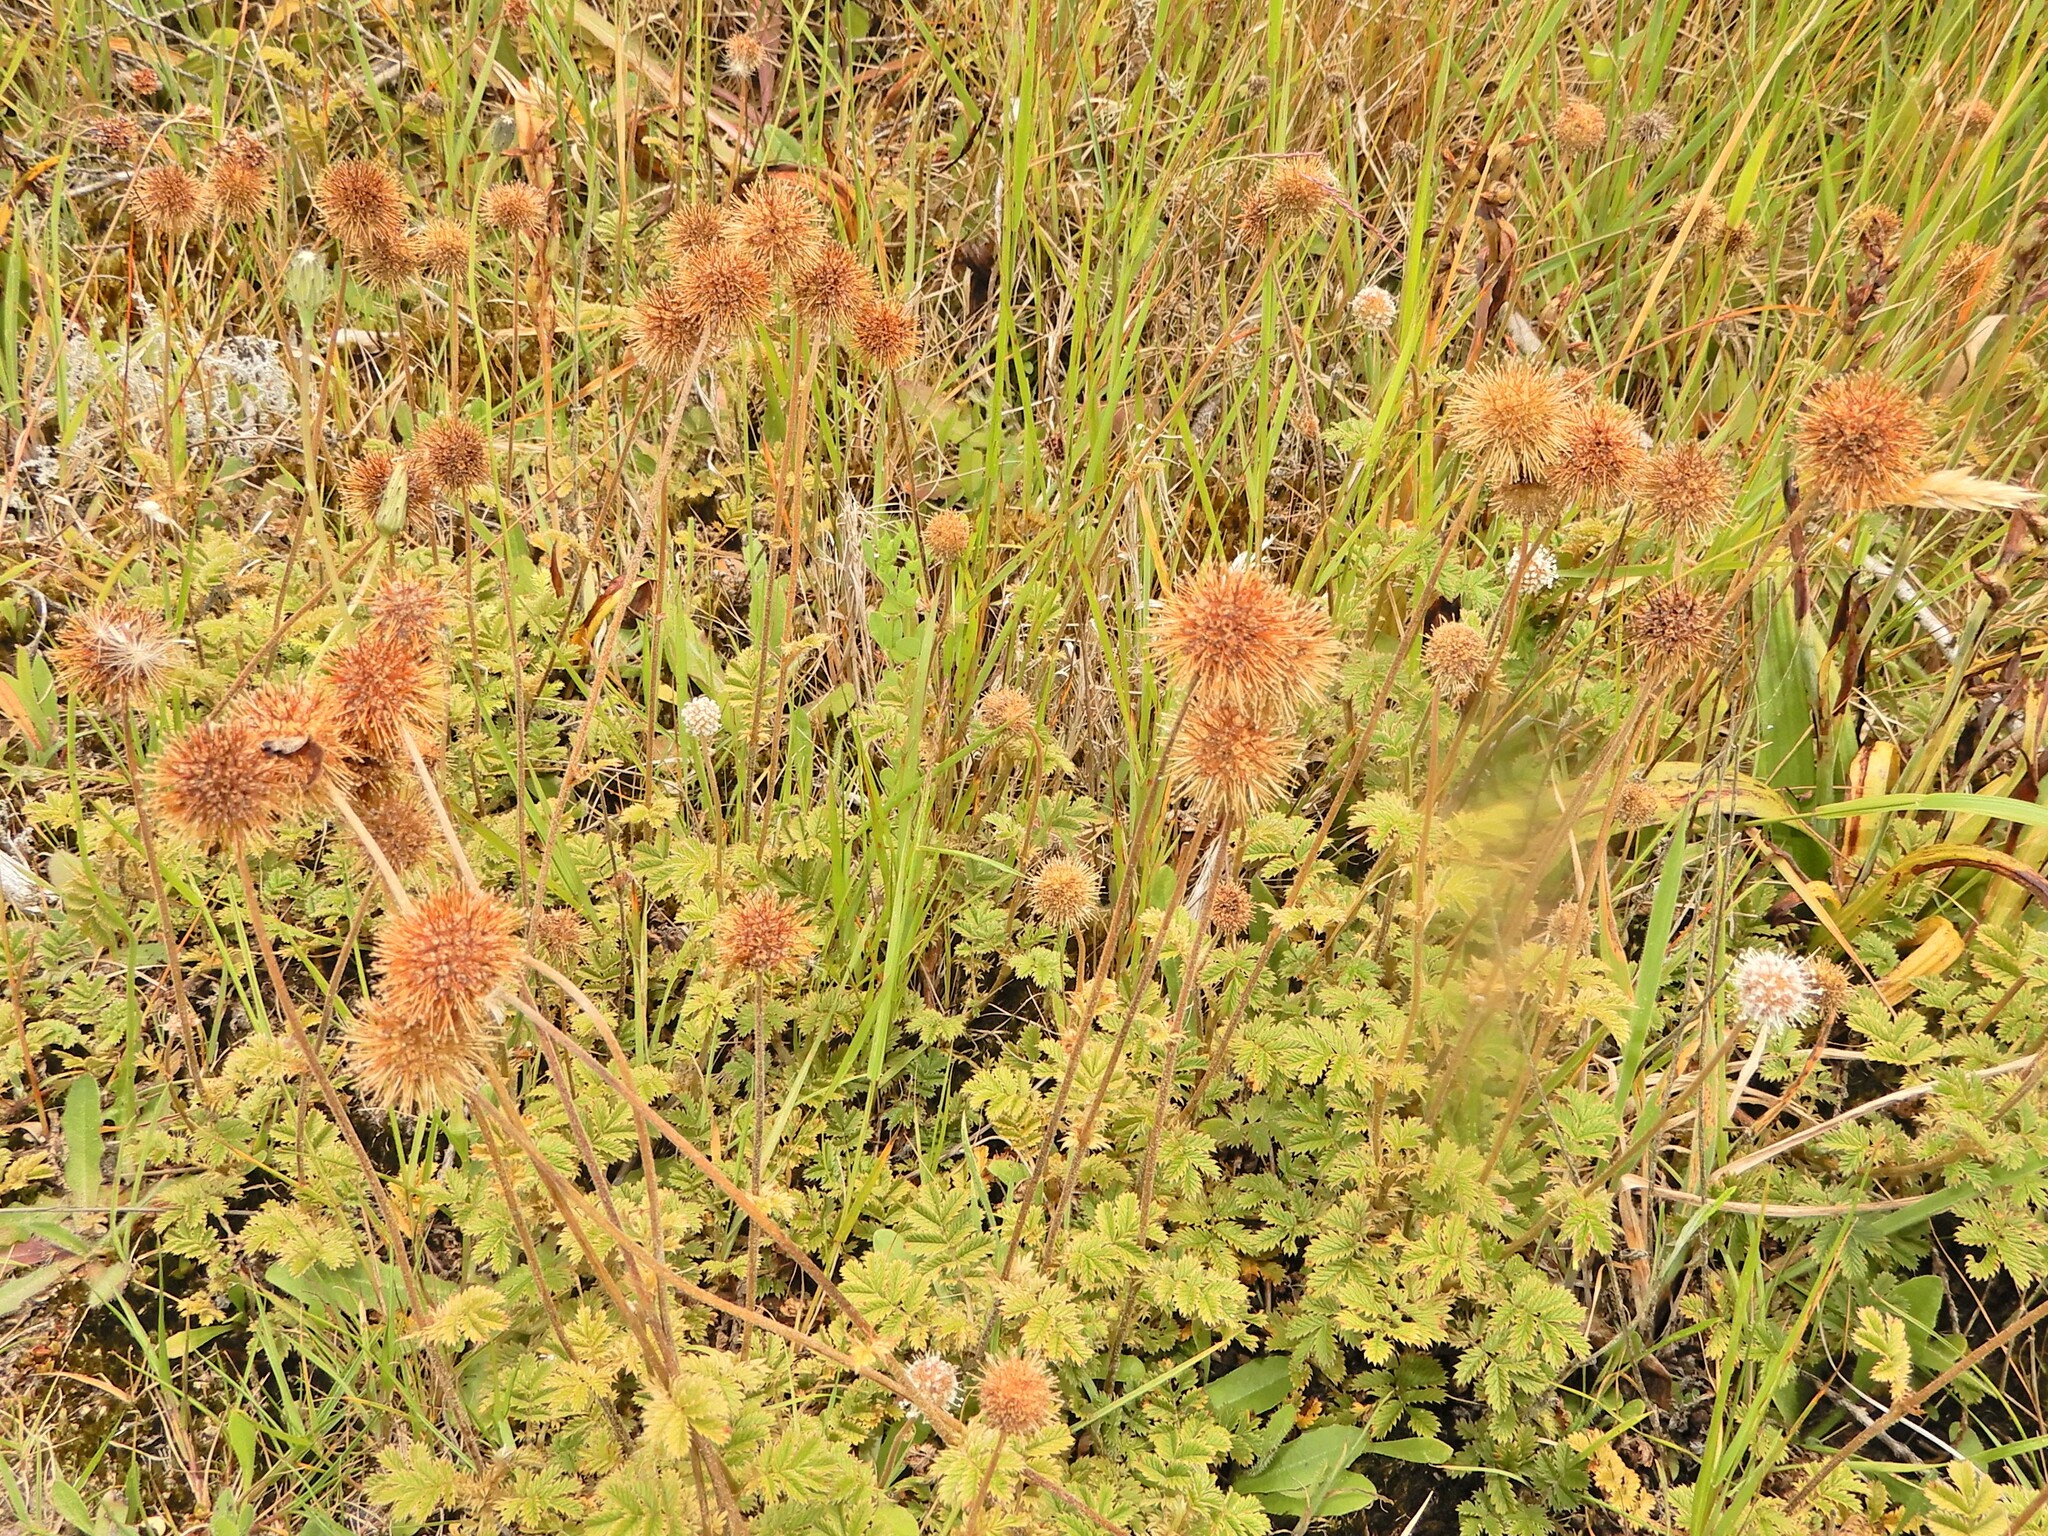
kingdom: Plantae
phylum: Tracheophyta
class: Magnoliopsida
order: Rosales
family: Rosaceae
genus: Acaena
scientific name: Acaena novae-zelandiae
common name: Pirri-pirri-bur
